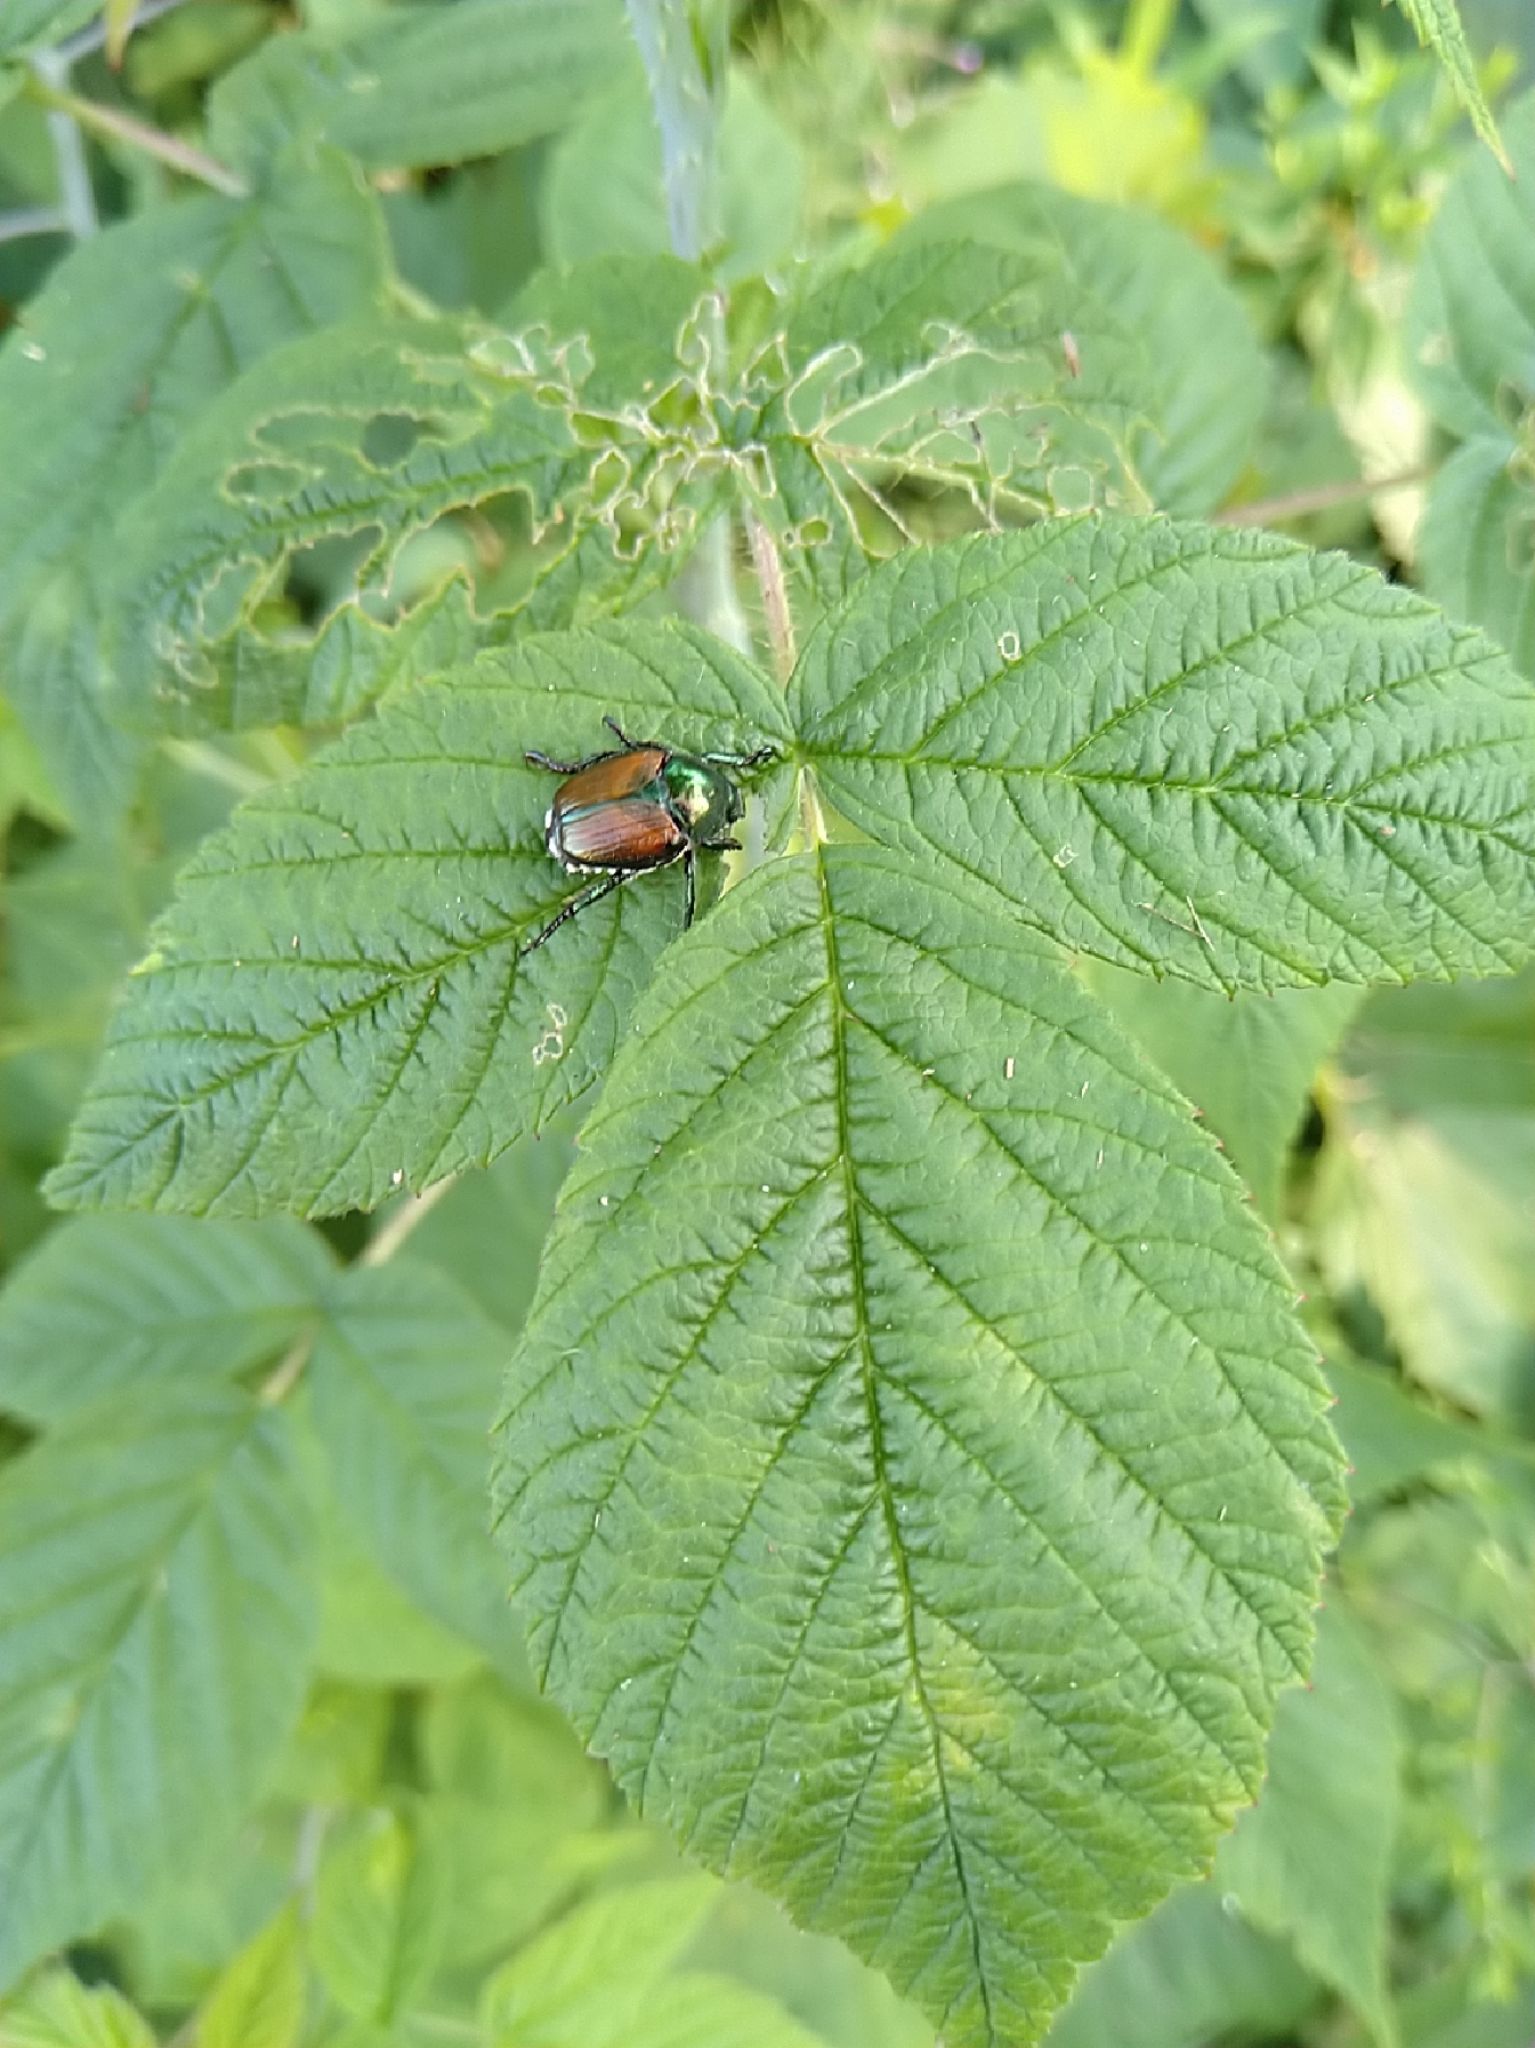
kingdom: Animalia
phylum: Arthropoda
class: Insecta
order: Coleoptera
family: Scarabaeidae
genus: Popillia
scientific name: Popillia japonica
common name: Japanese beetle
